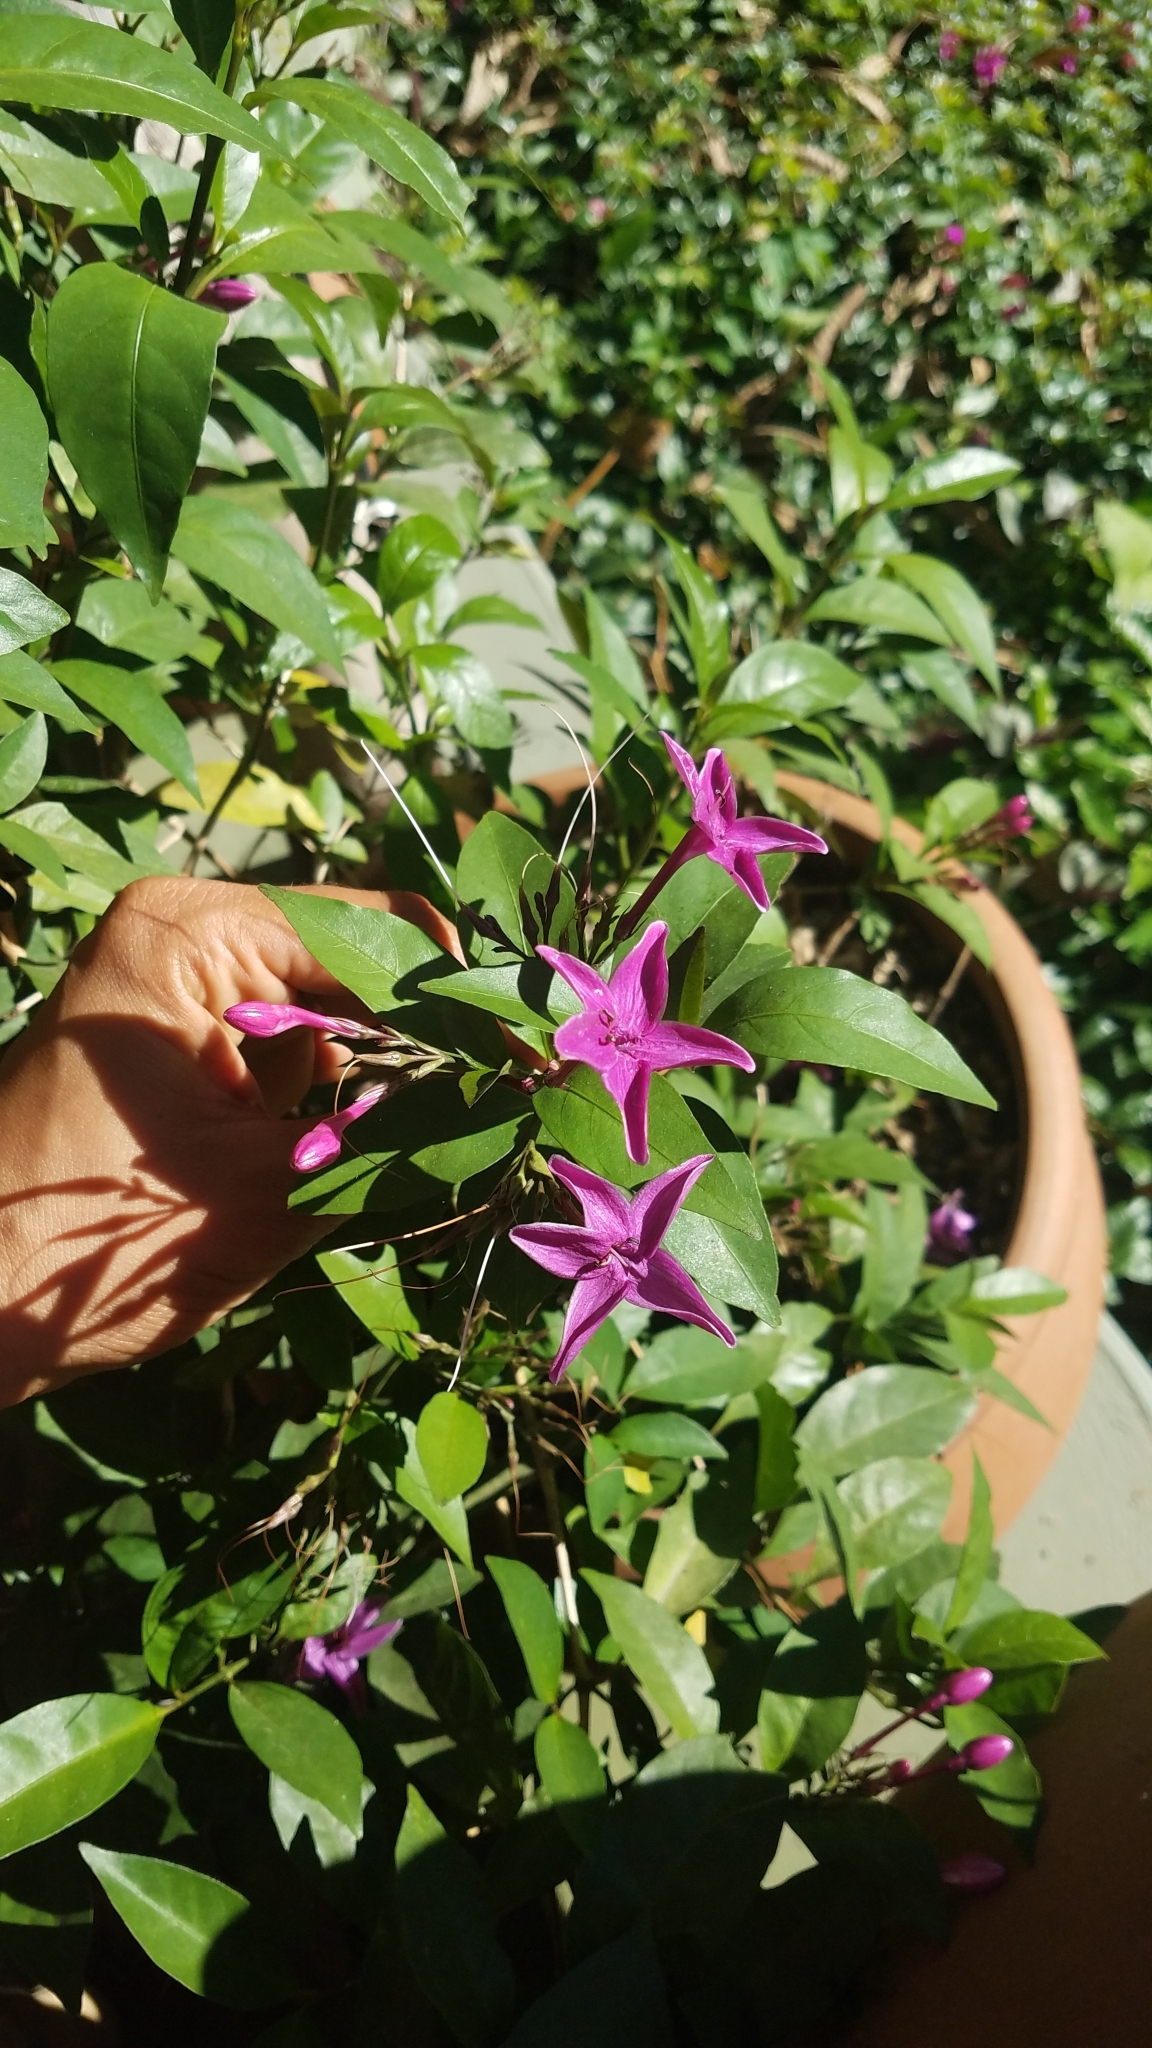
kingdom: Plantae
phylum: Tracheophyta
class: Magnoliopsida
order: Lamiales
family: Acanthaceae
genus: Pseuderanthemum
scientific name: Pseuderanthemum laxiflorum
